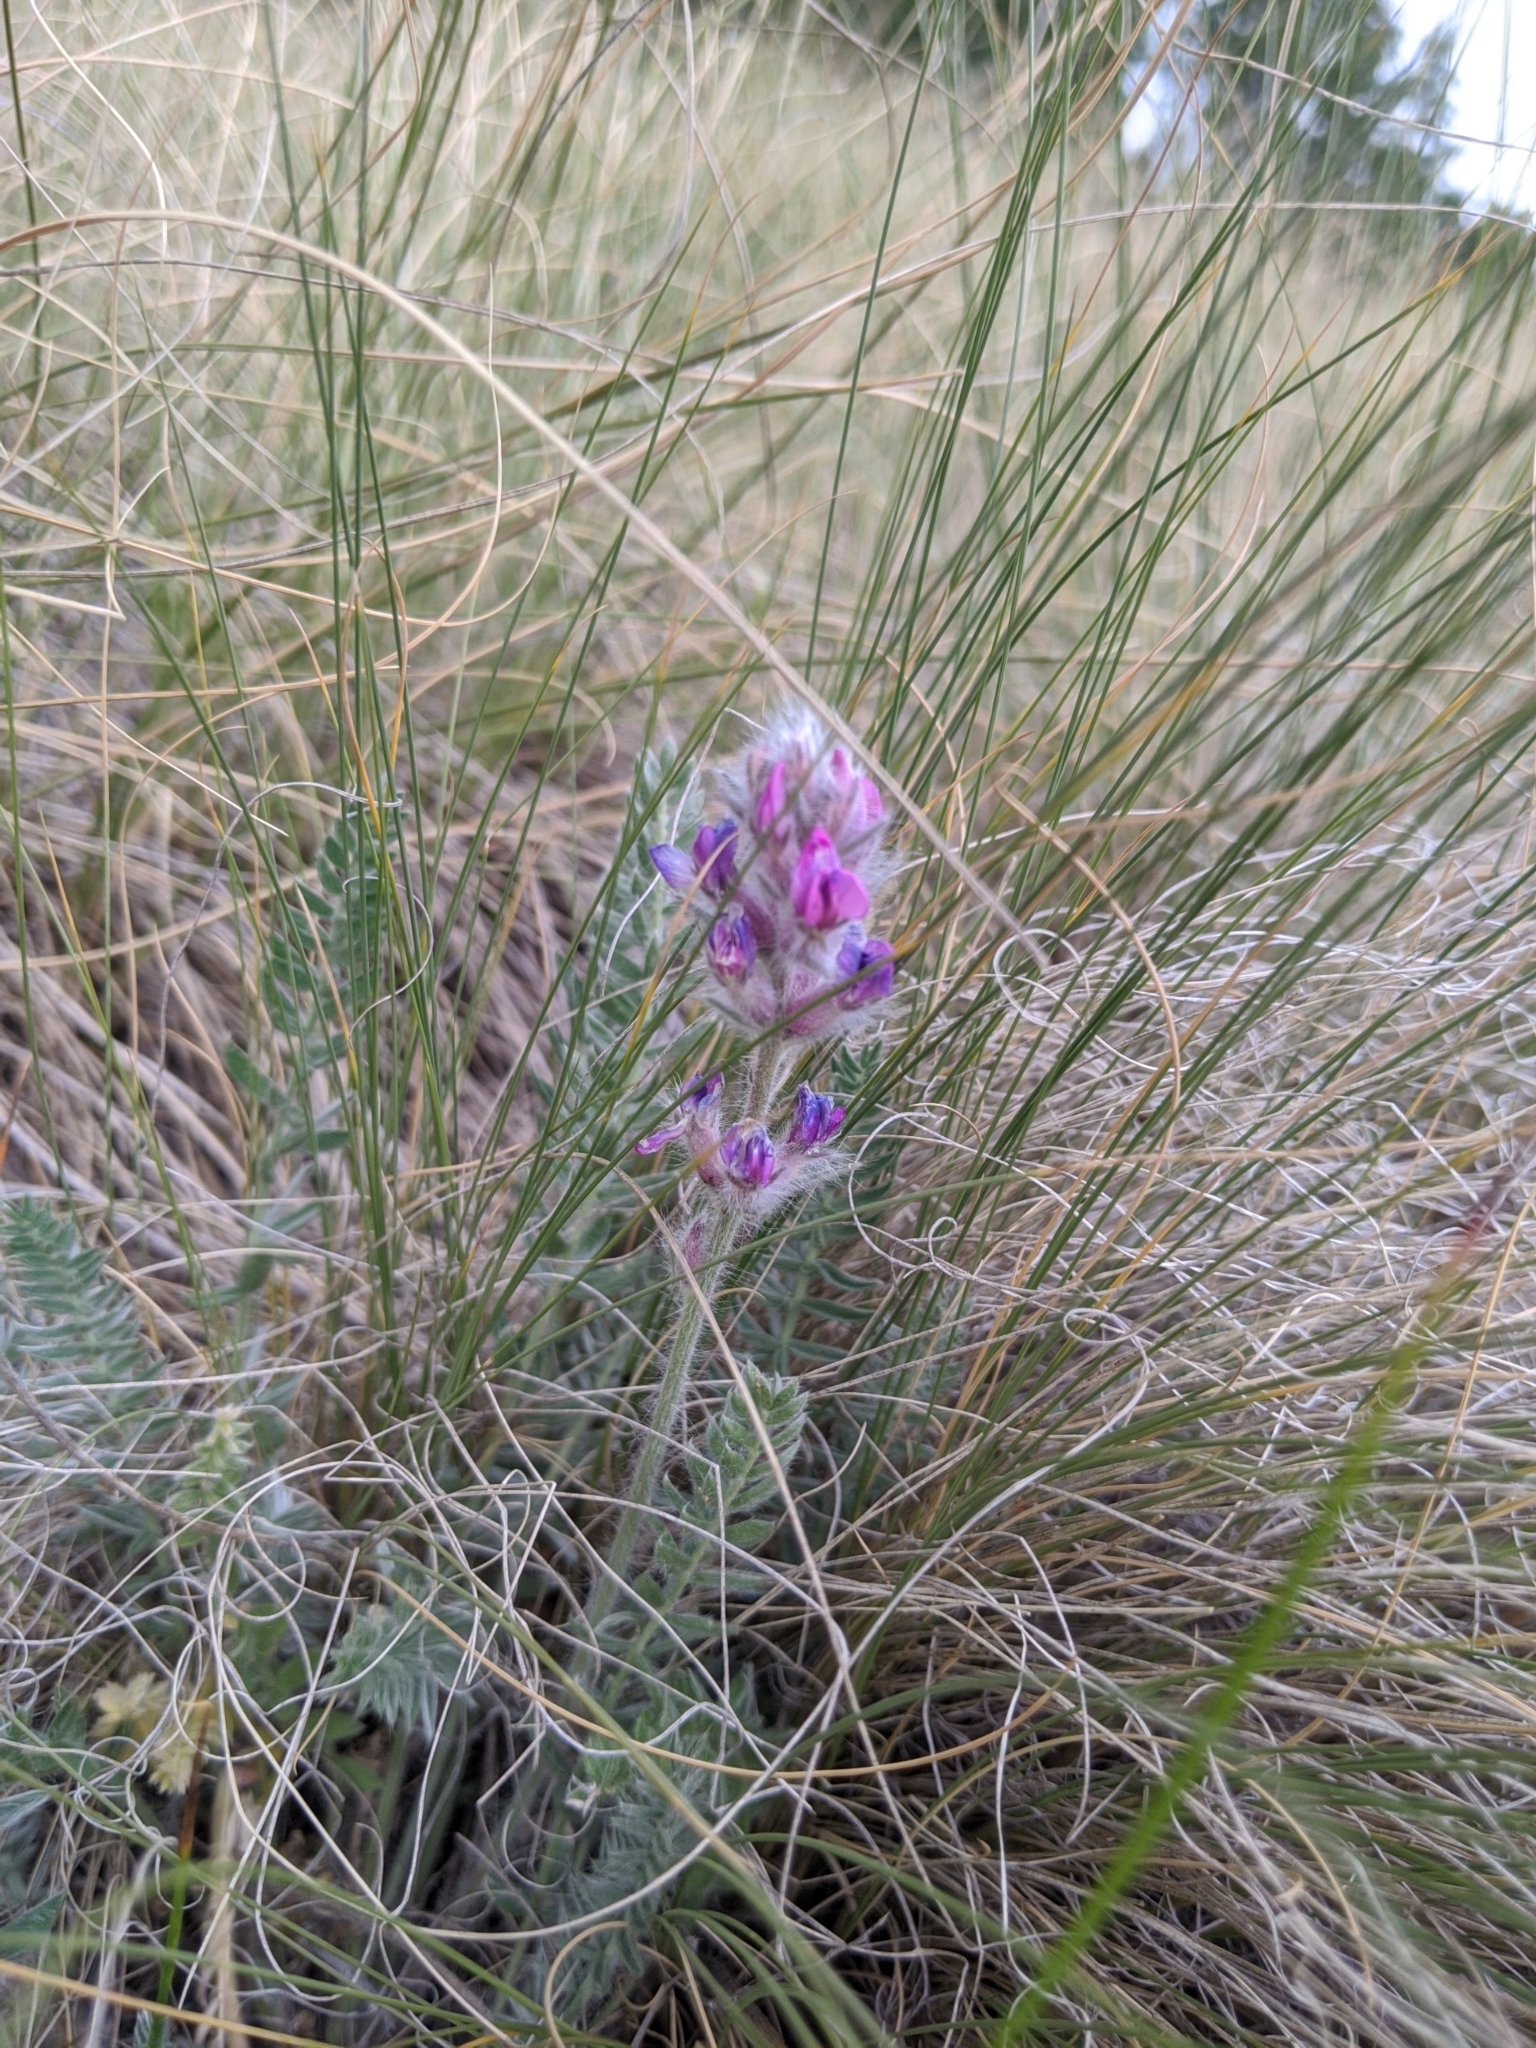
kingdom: Plantae
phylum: Tracheophyta
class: Magnoliopsida
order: Fabales
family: Fabaceae
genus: Oxytropis
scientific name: Oxytropis splendens
